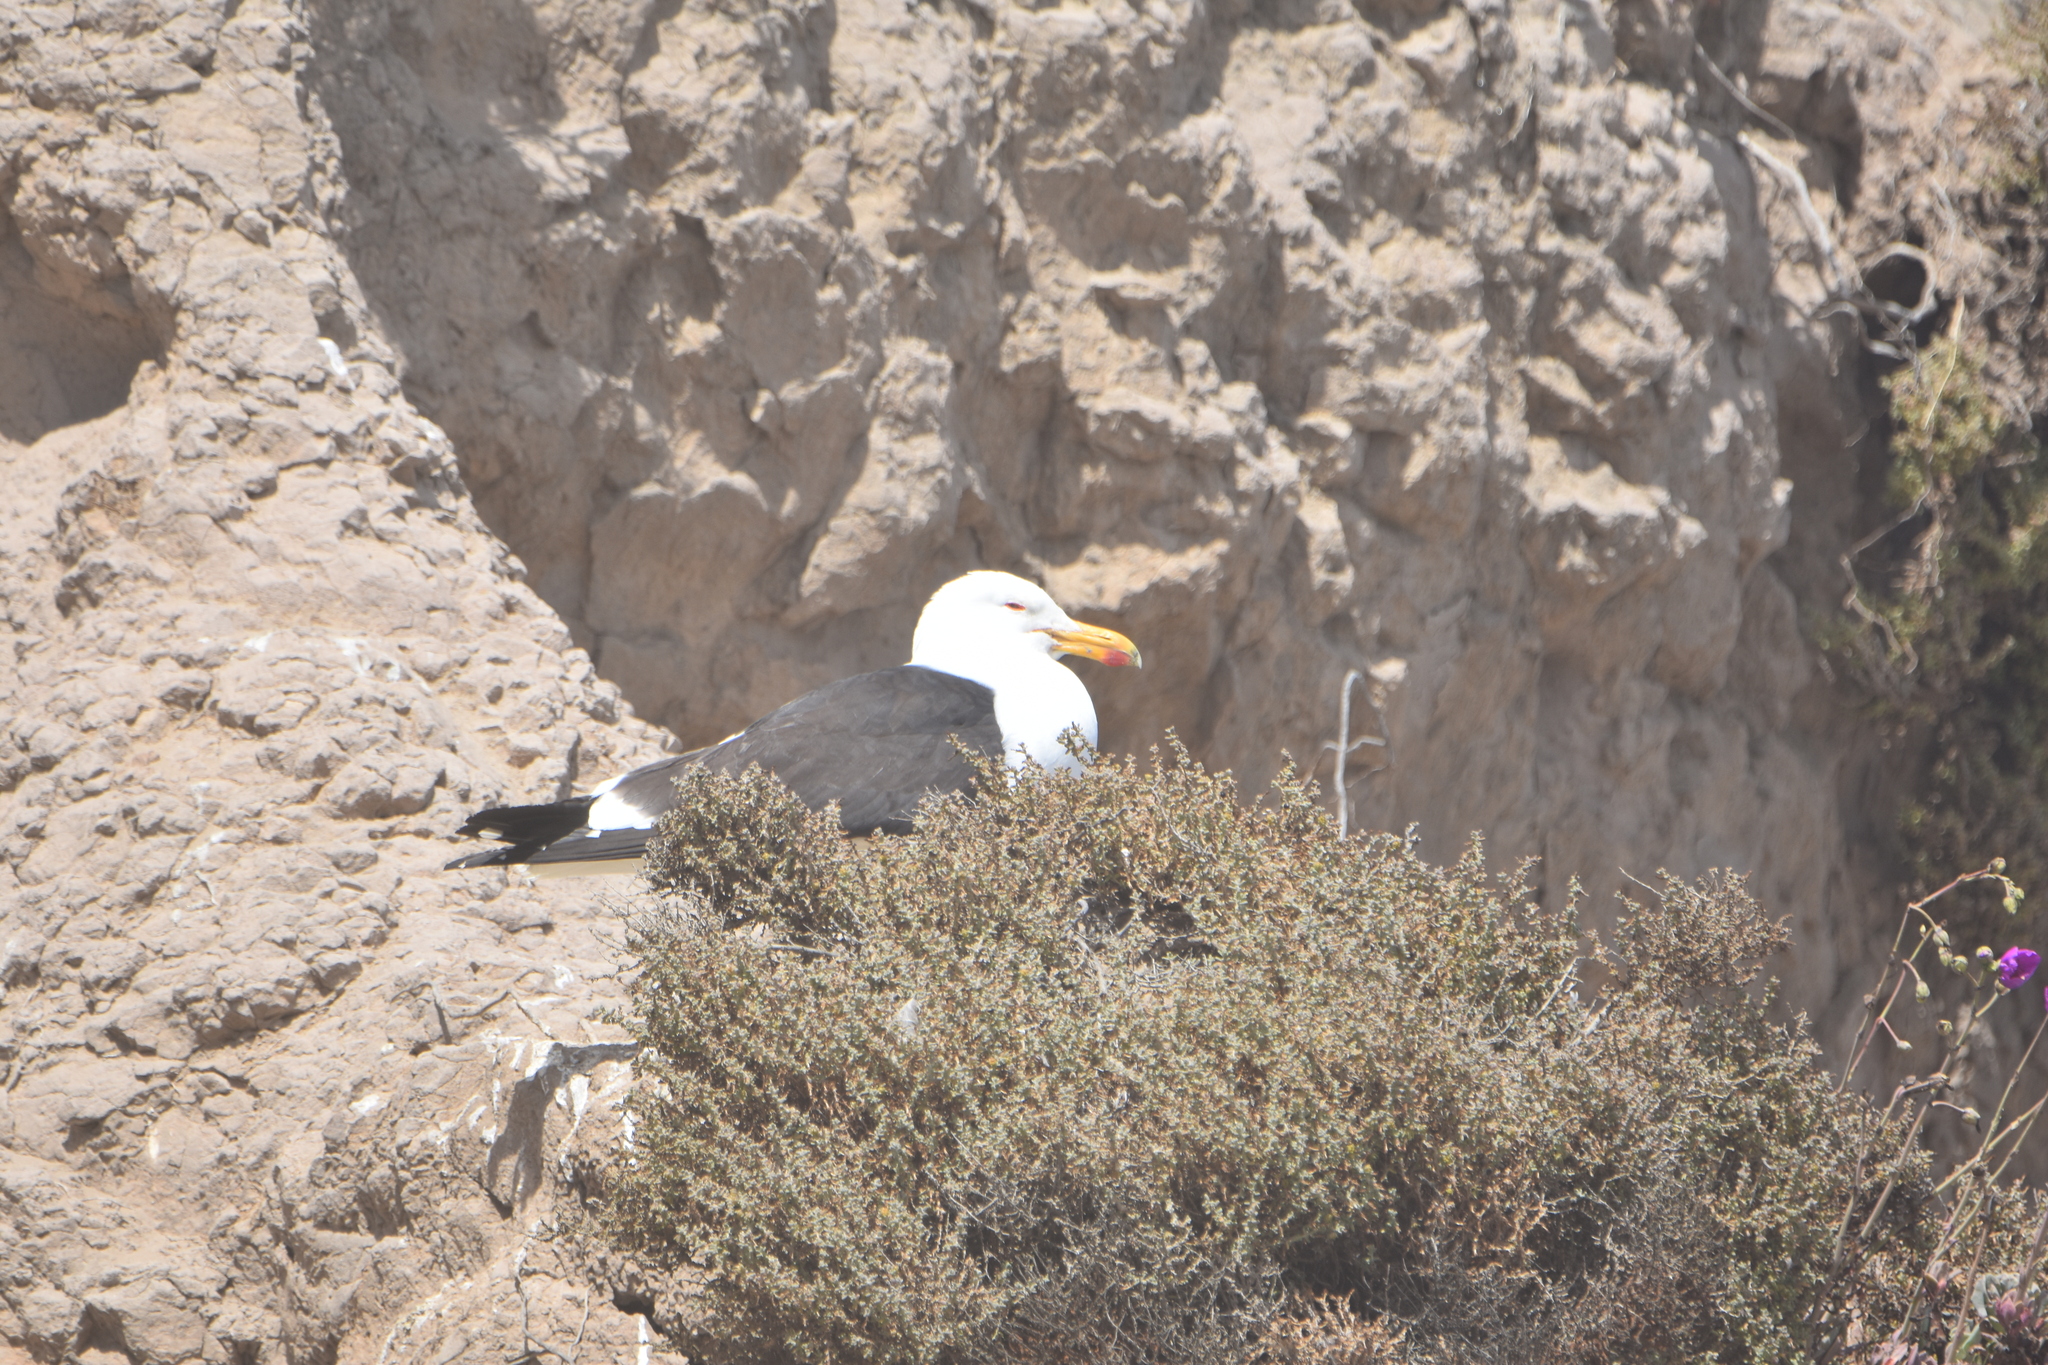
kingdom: Animalia
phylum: Chordata
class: Aves
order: Charadriiformes
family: Laridae
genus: Larus
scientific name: Larus dominicanus
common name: Kelp gull
